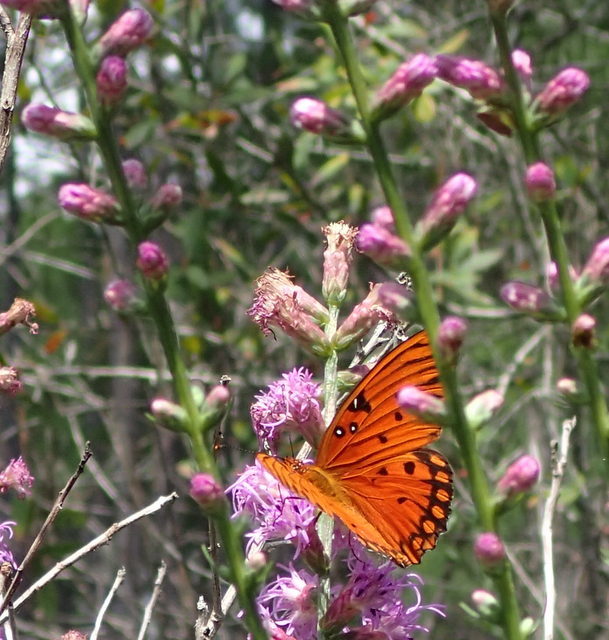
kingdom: Animalia
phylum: Arthropoda
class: Insecta
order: Lepidoptera
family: Nymphalidae
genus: Dione
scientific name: Dione vanillae
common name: Gulf fritillary
